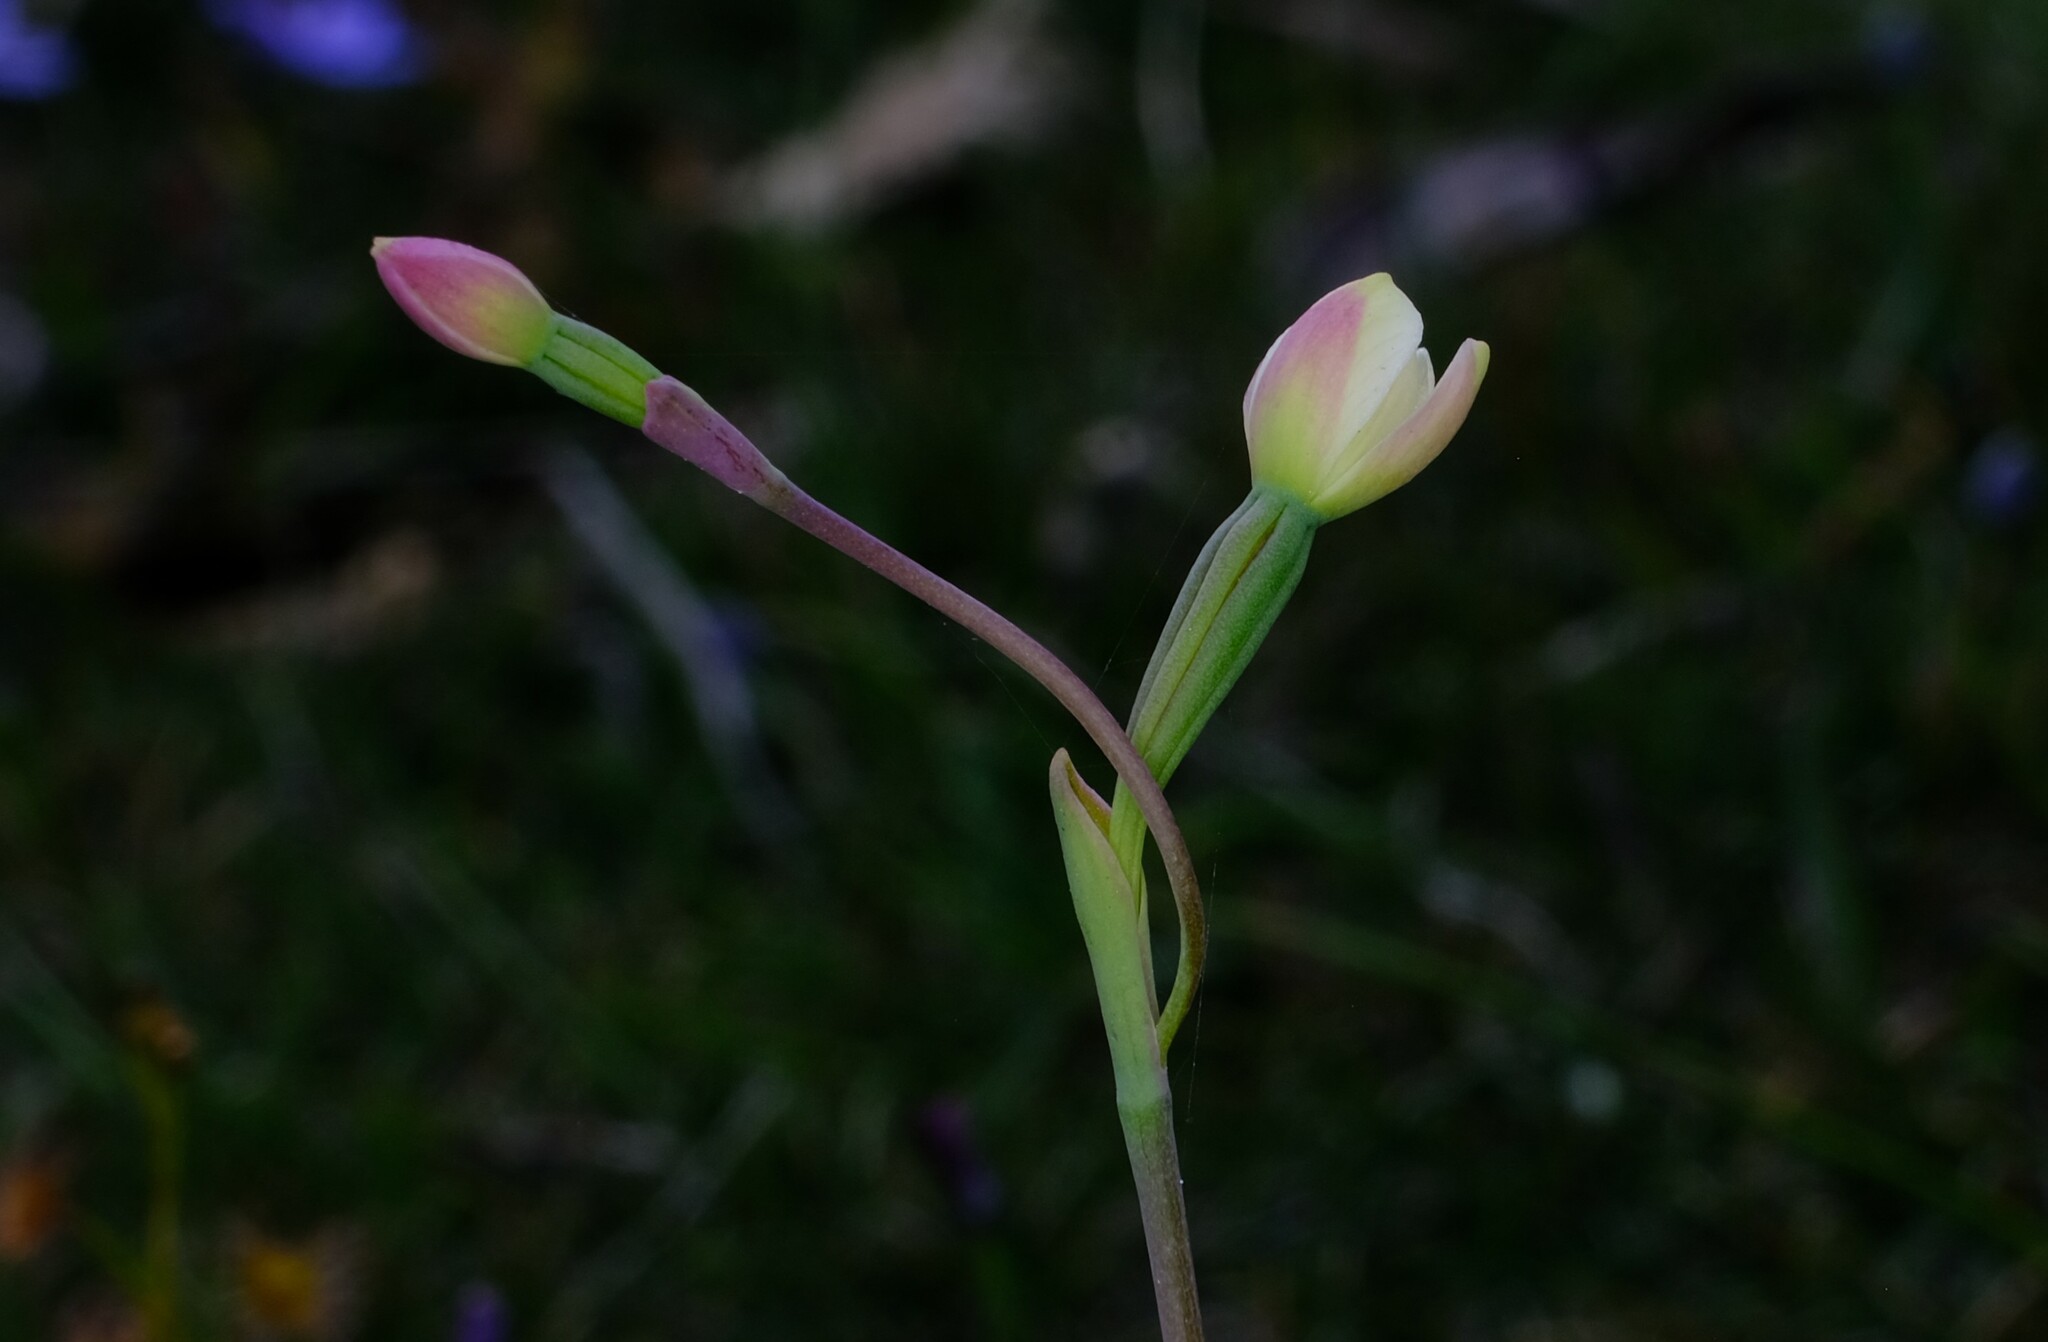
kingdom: Plantae
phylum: Tracheophyta
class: Liliopsida
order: Asparagales
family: Orchidaceae
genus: Thelymitra
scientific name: Thelymitra flexuosa
